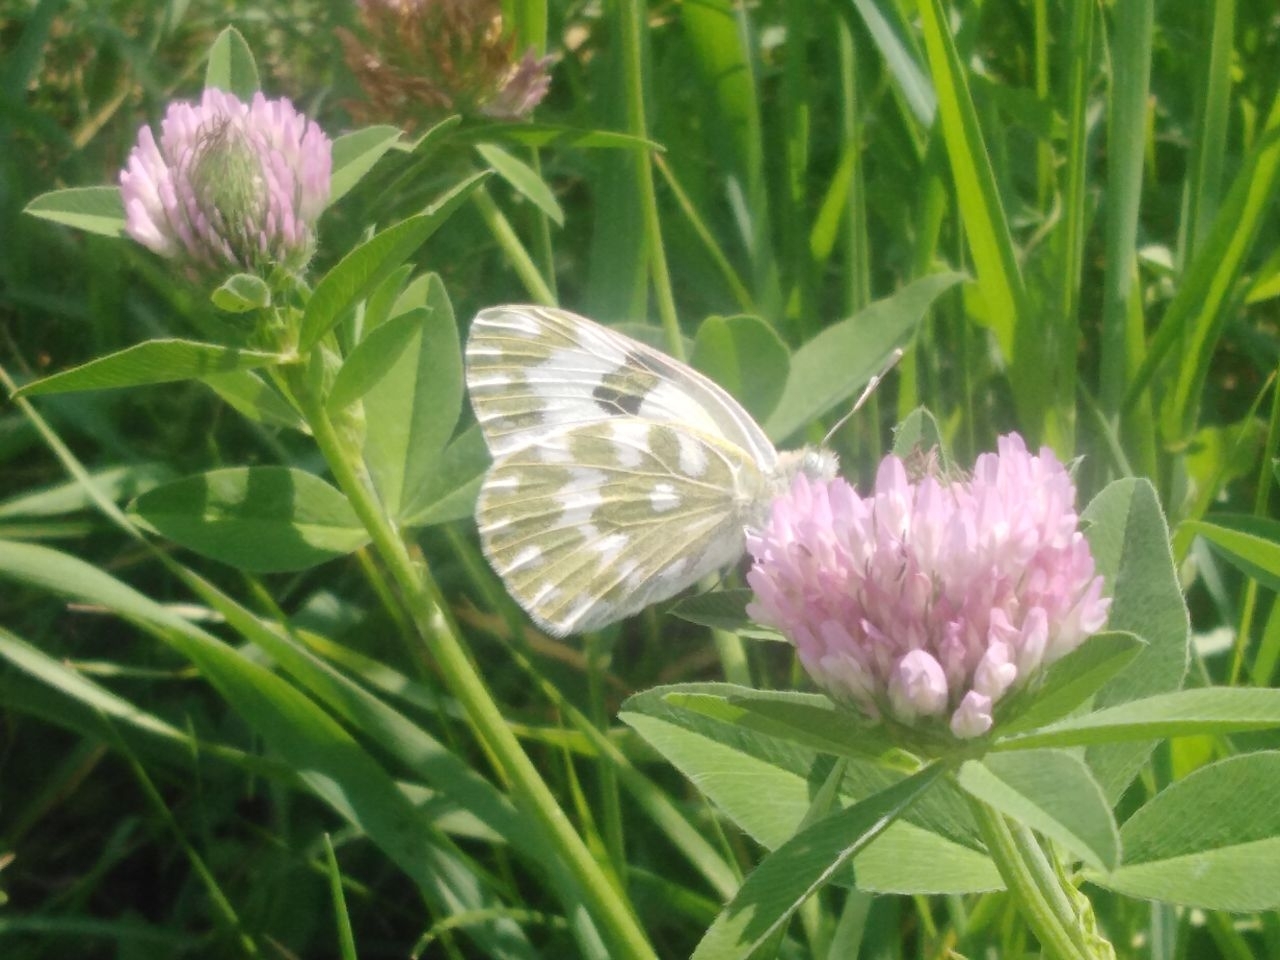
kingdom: Animalia
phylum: Arthropoda
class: Insecta
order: Lepidoptera
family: Pieridae
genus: Pontia
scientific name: Pontia edusa
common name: Eastern bath white
